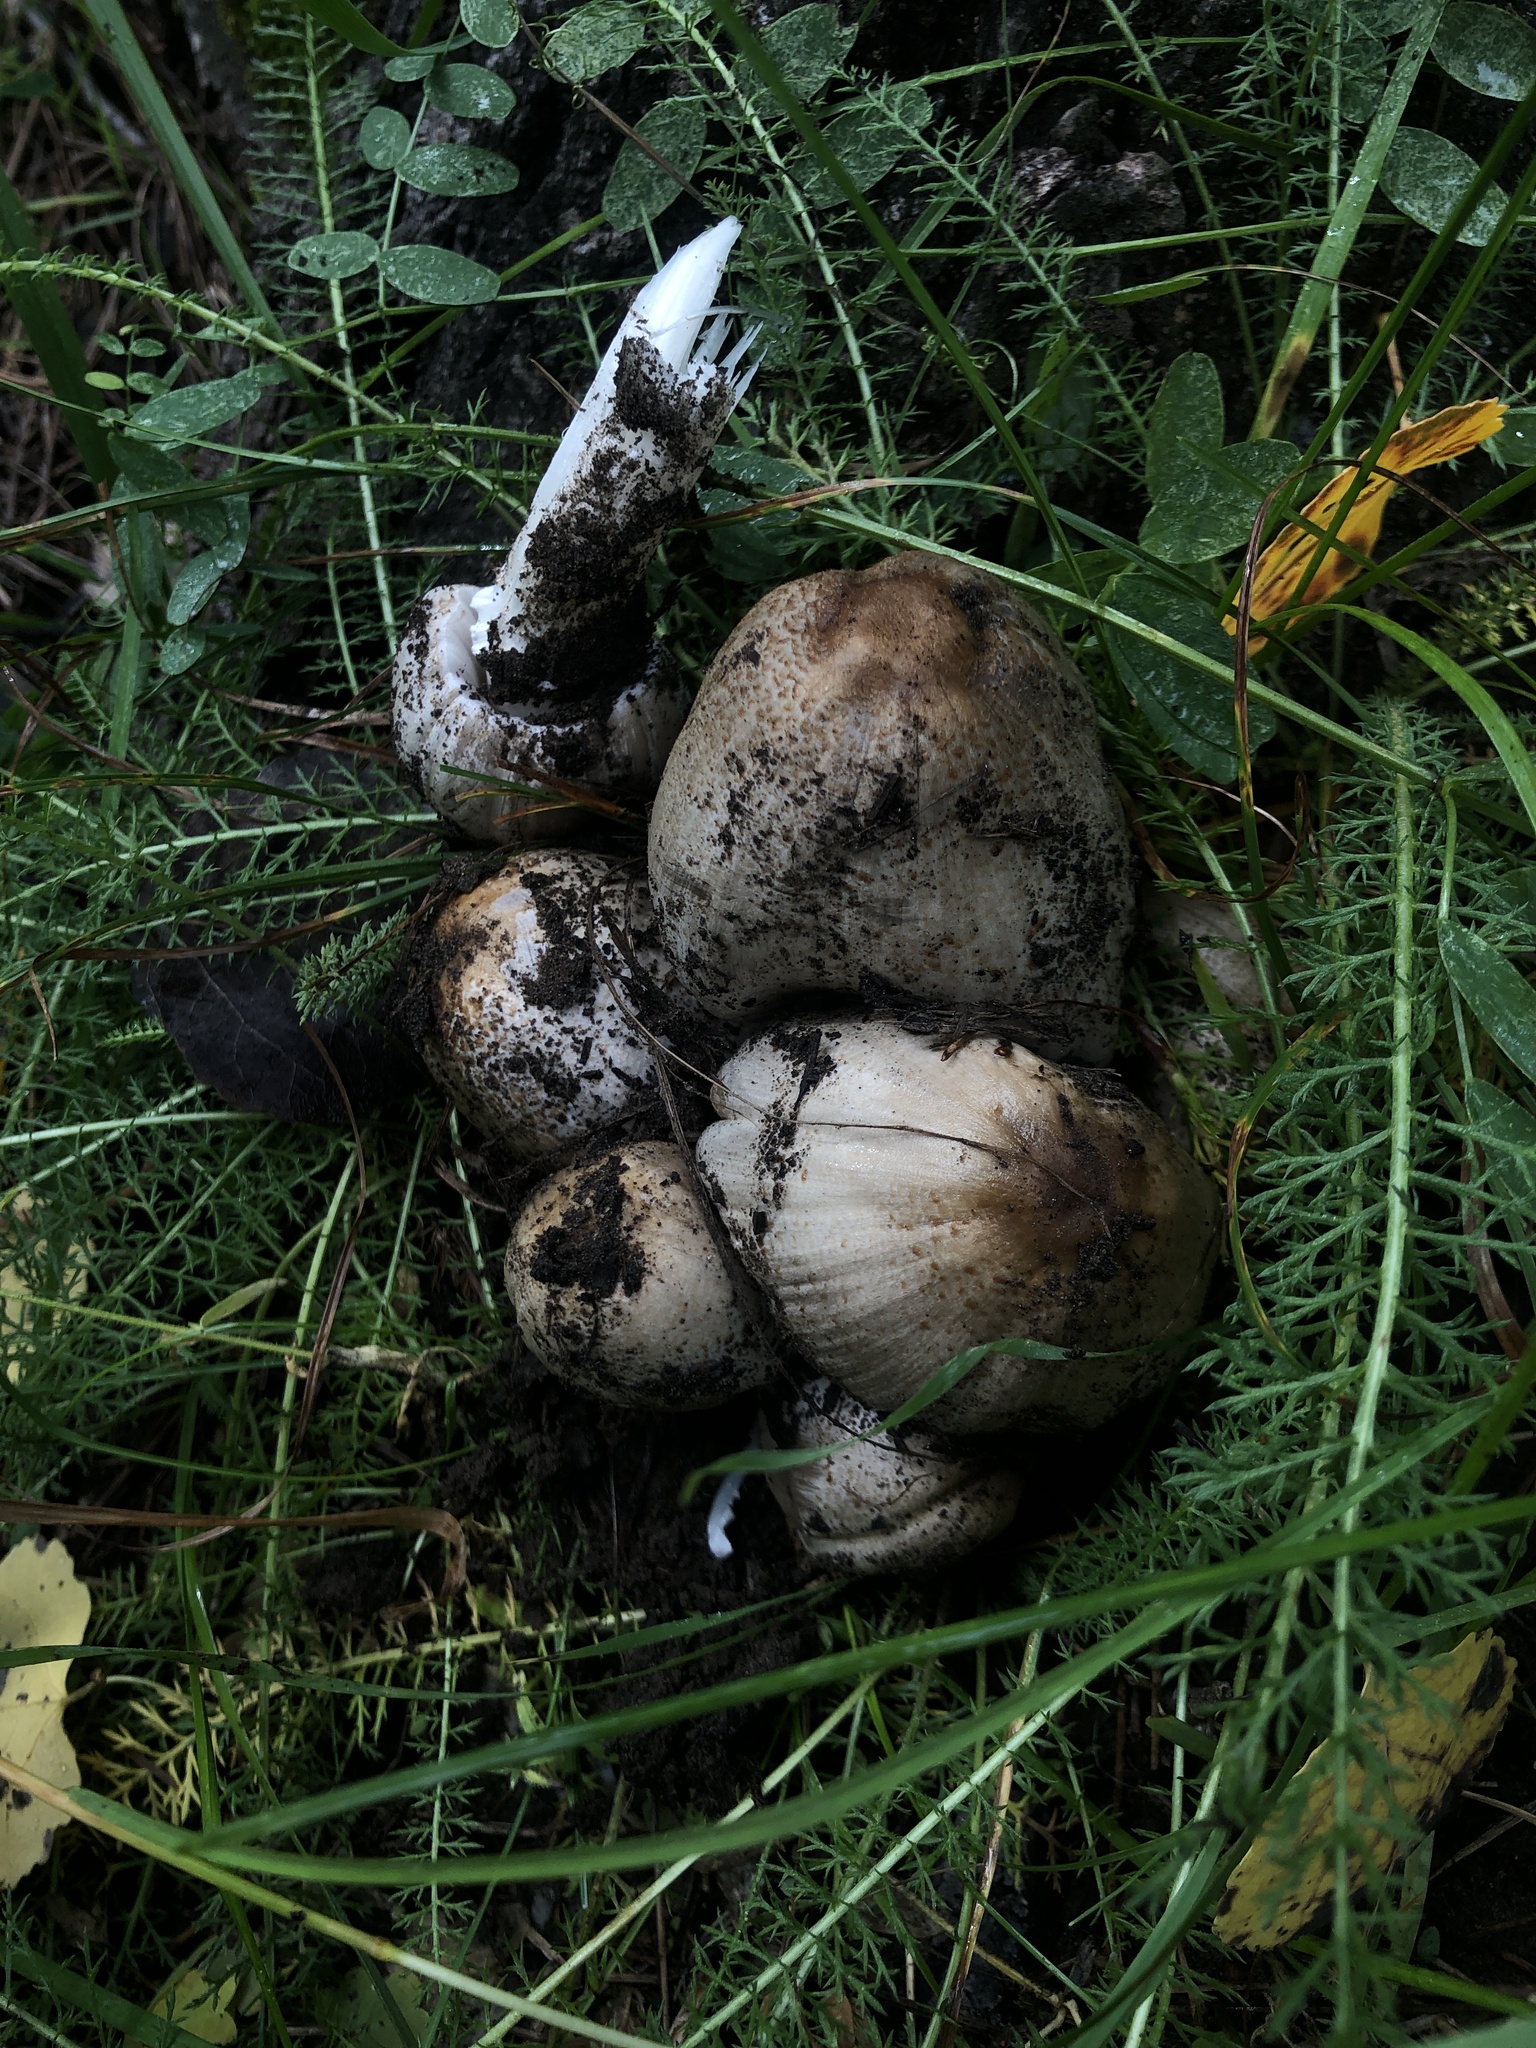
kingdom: Fungi
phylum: Basidiomycota
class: Agaricomycetes
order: Agaricales
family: Psathyrellaceae
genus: Coprinopsis
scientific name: Coprinopsis atramentaria
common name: Common ink-cap
